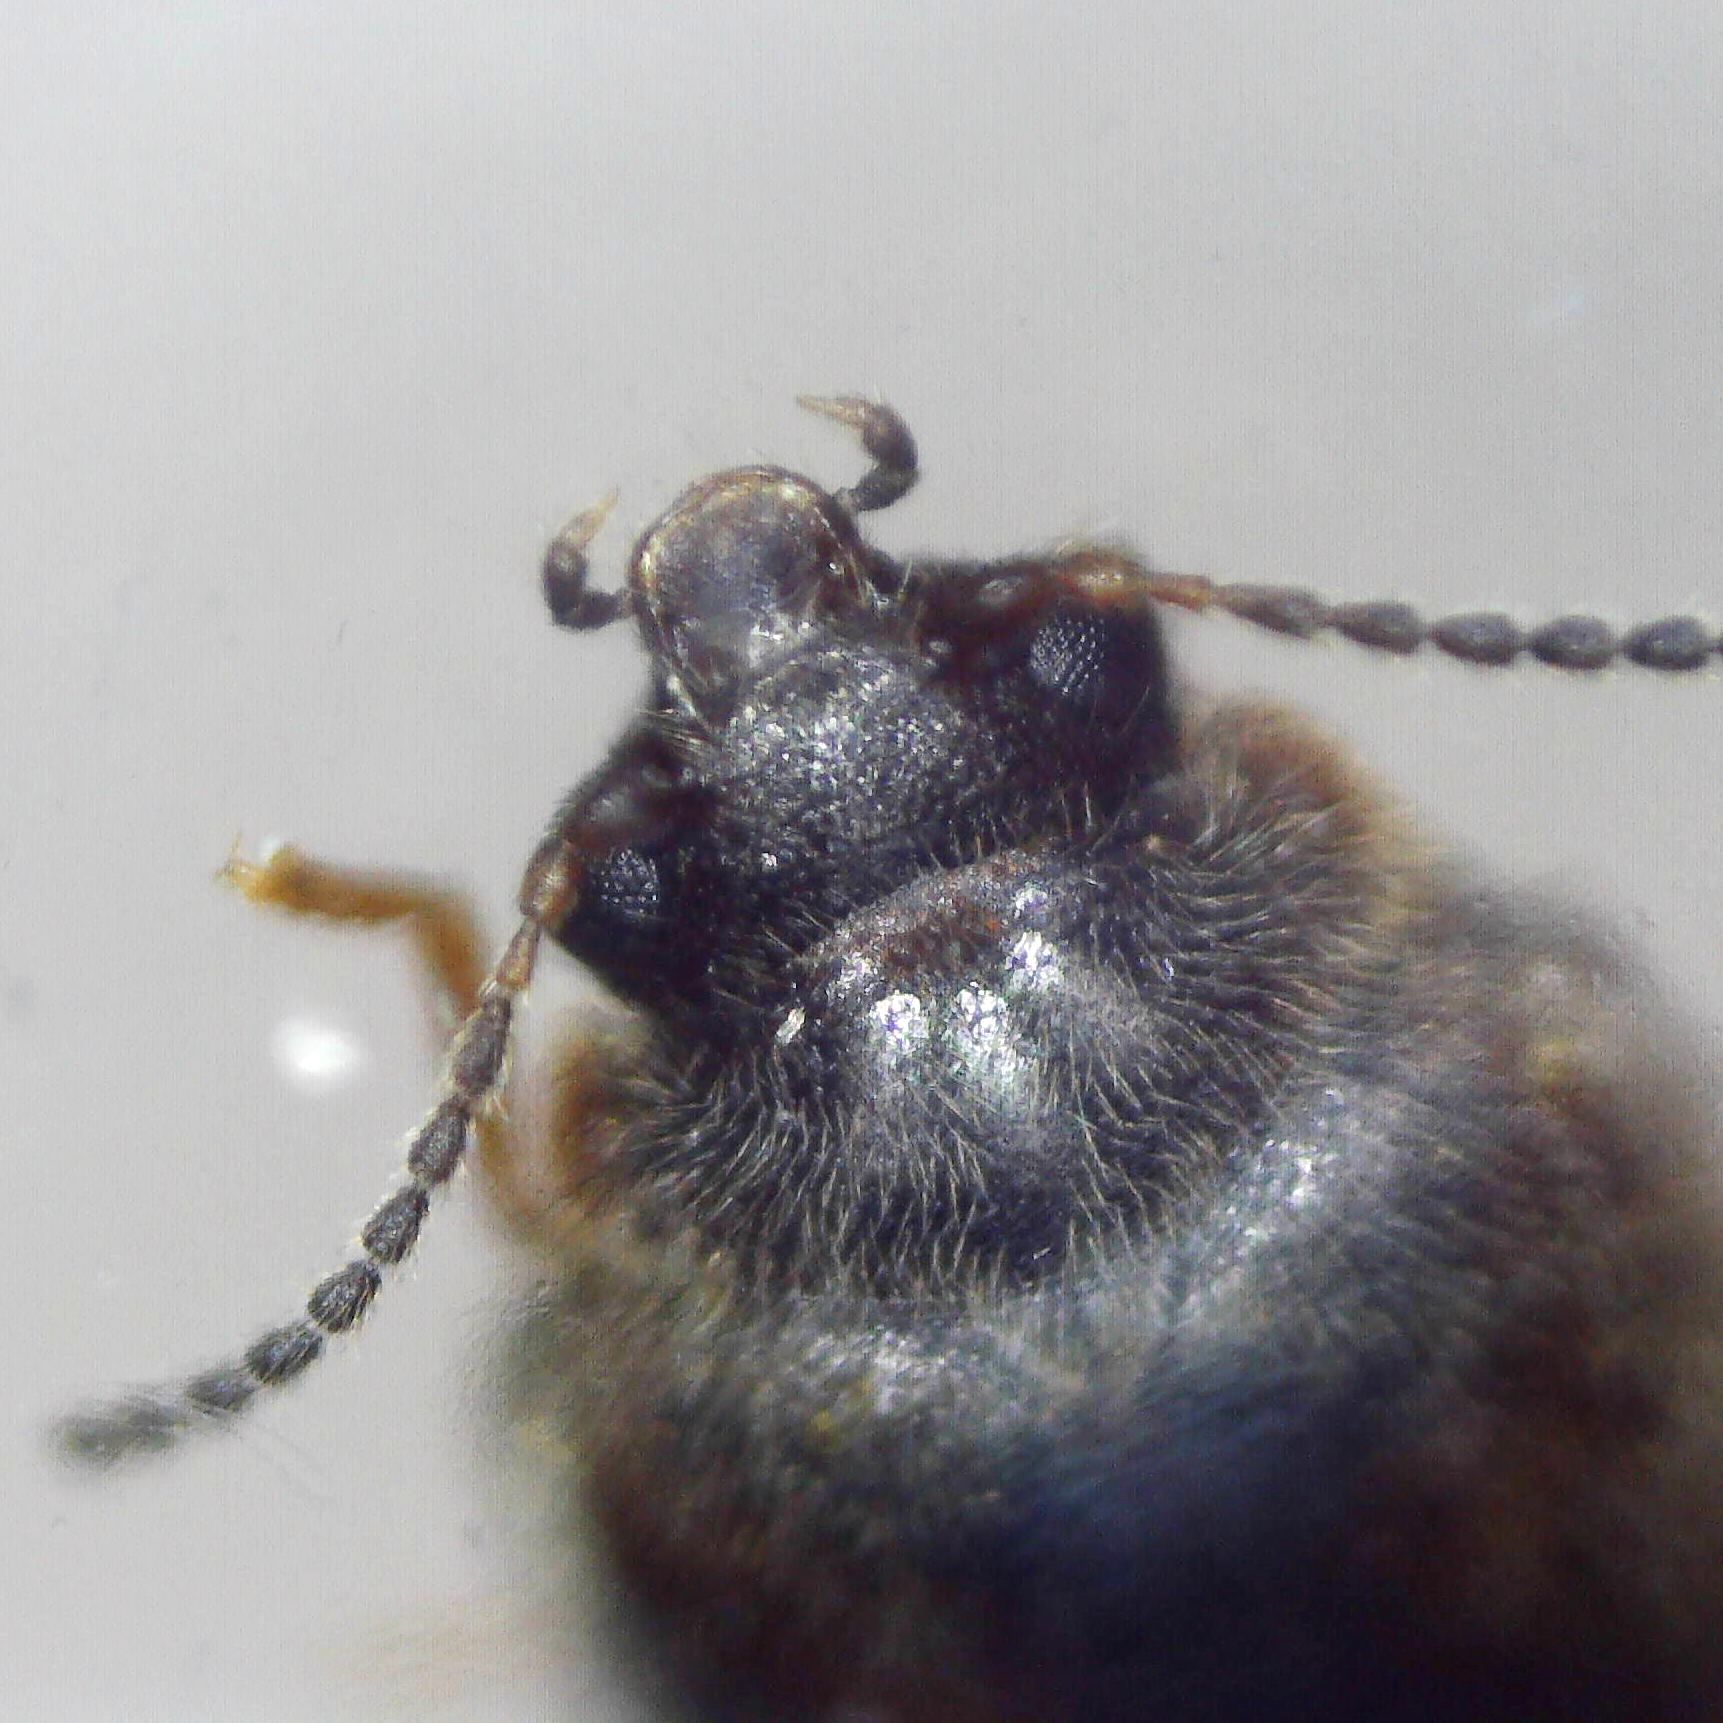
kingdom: Animalia
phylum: Arthropoda
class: Insecta
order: Coleoptera
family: Scirtidae
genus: Cyphon
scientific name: Cyphon padi
